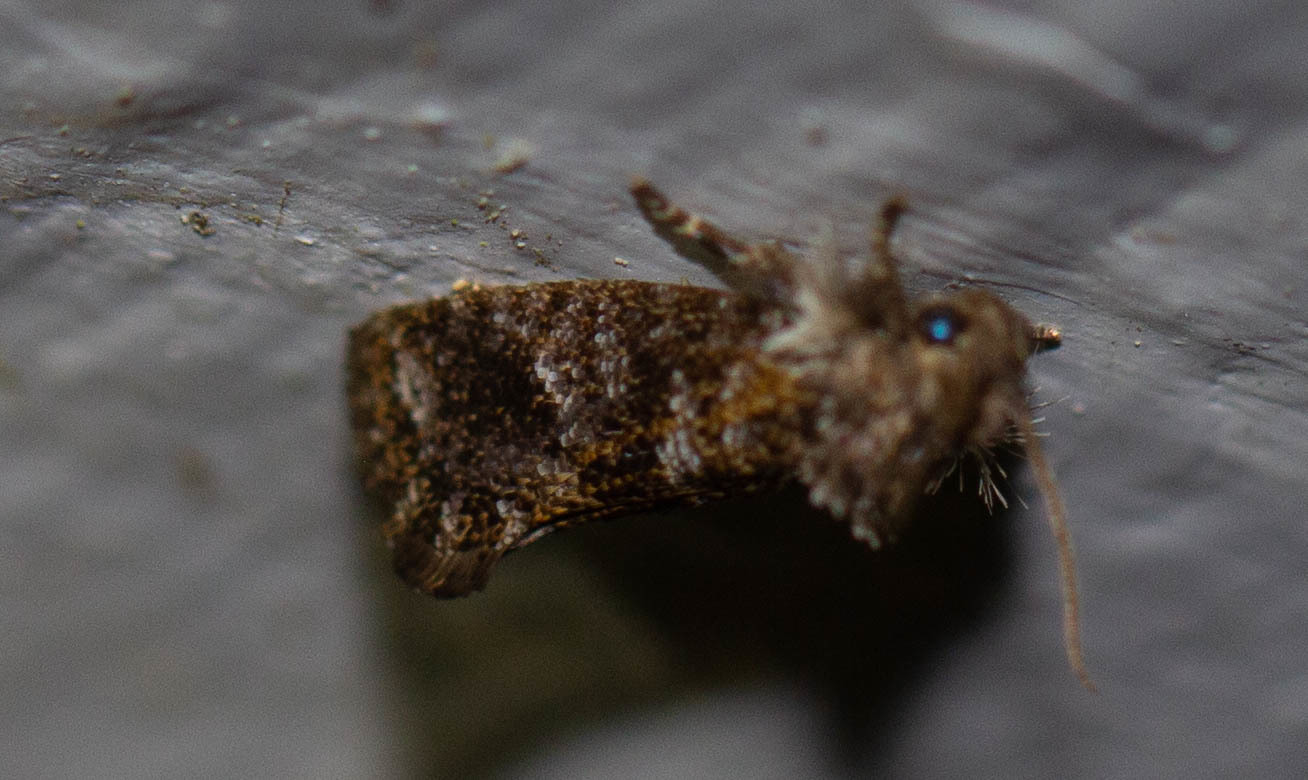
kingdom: Animalia
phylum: Arthropoda
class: Insecta
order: Lepidoptera
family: Tineidae
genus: Acrolophus
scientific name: Acrolophus panamae
